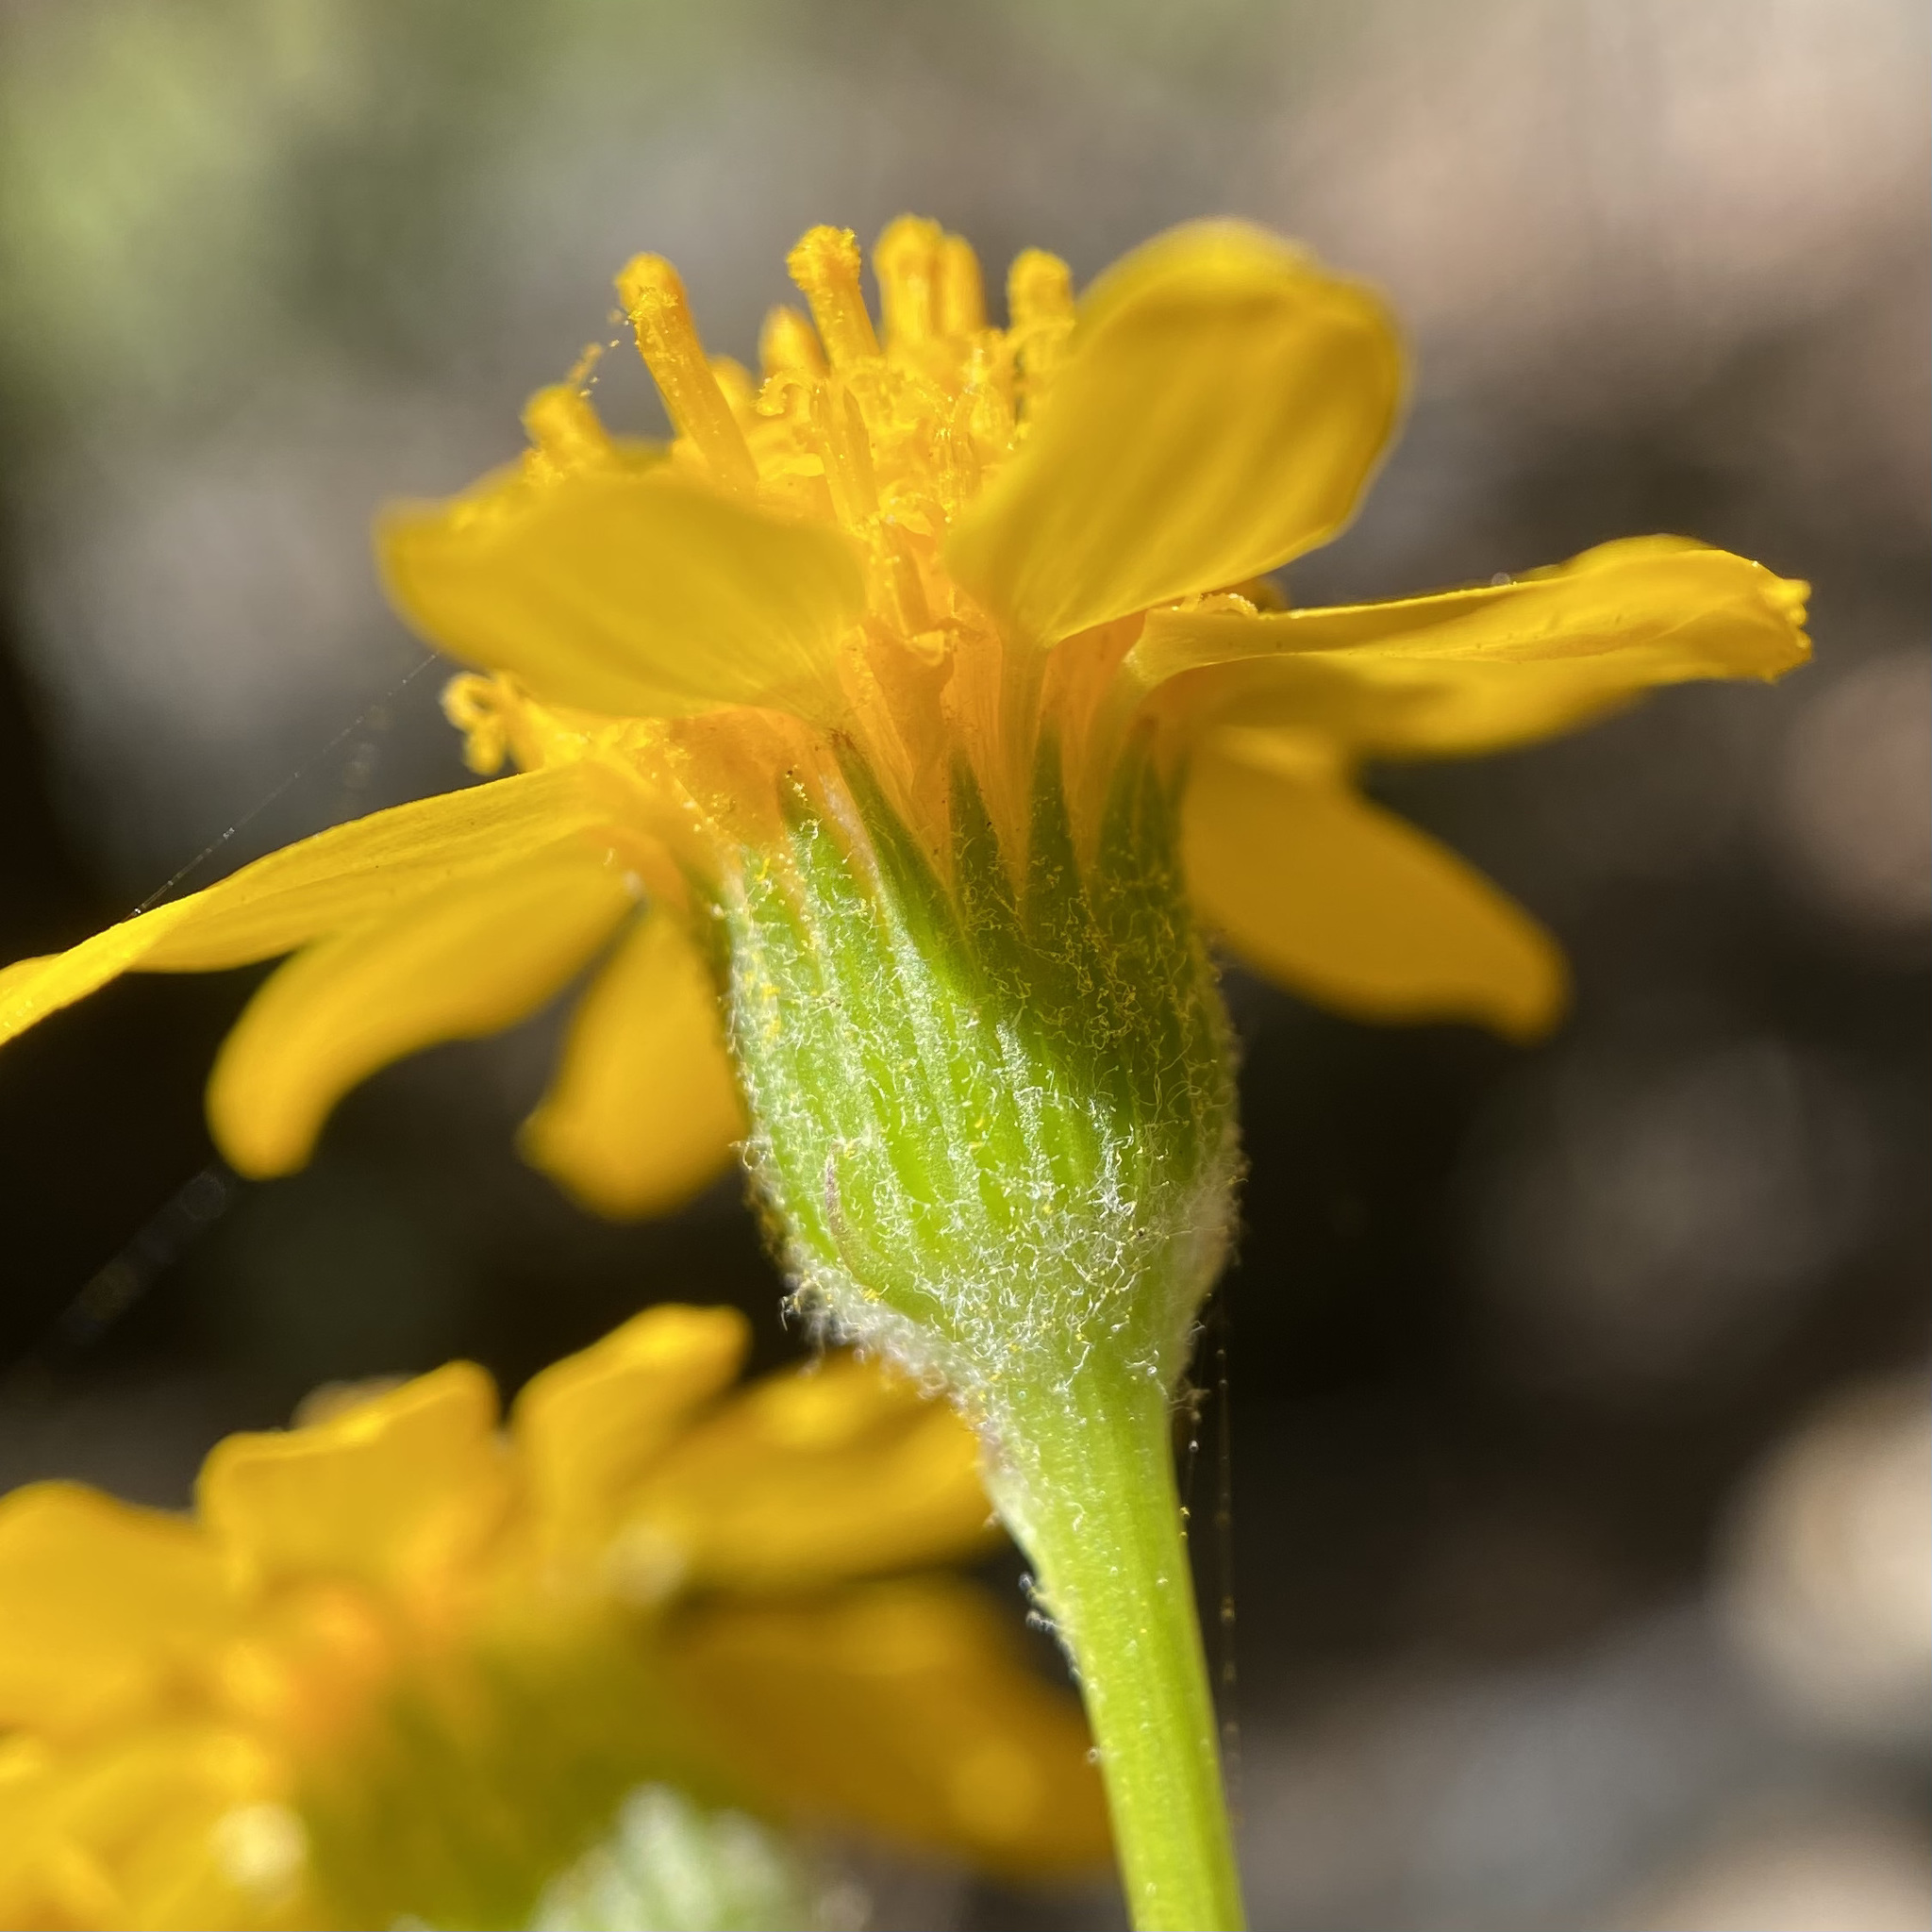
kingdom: Plantae
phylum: Tracheophyta
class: Magnoliopsida
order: Asterales
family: Asteraceae
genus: Packera
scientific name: Packera neomexicana
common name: New mexico butterweed
